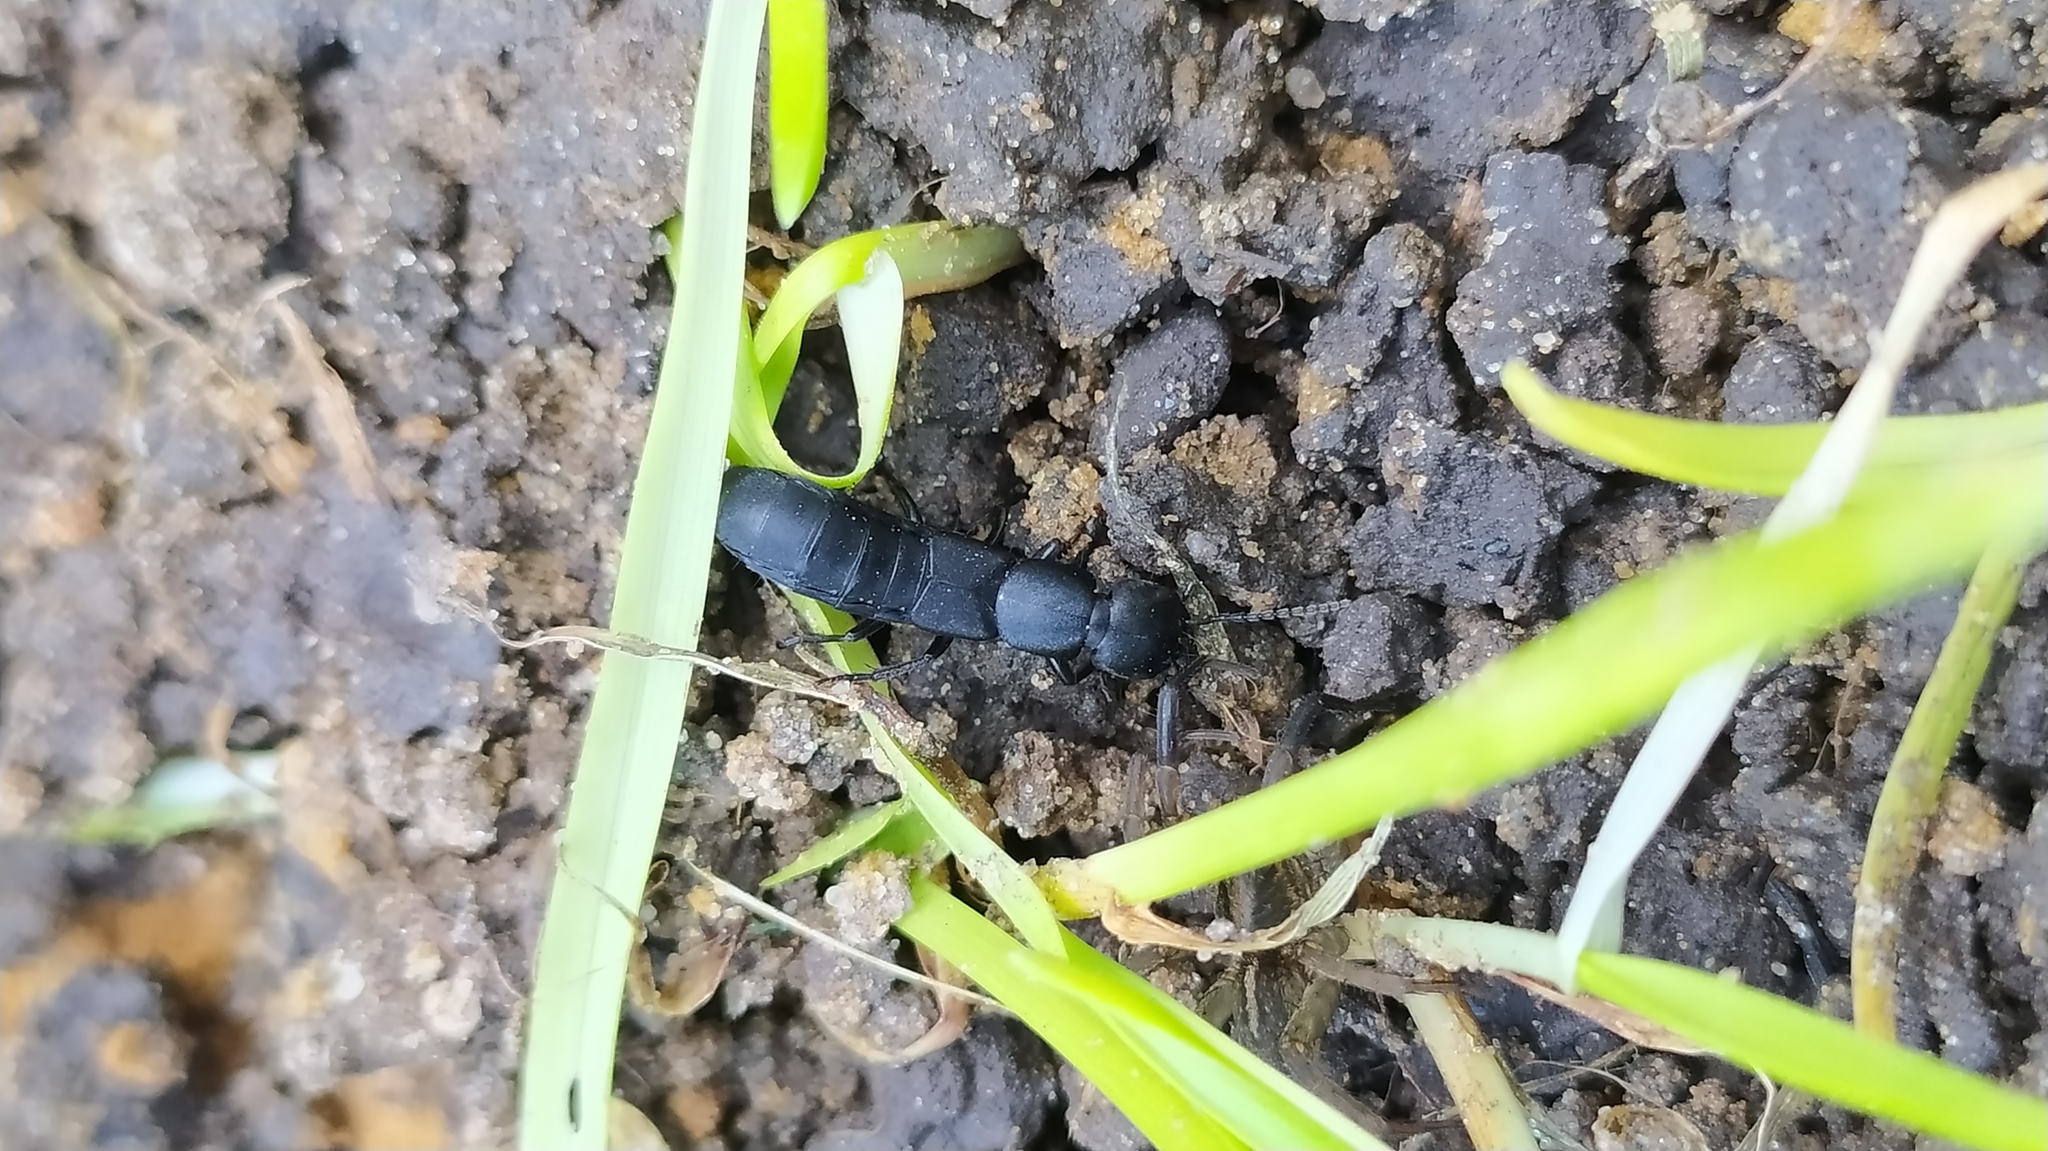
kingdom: Animalia
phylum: Arthropoda
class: Insecta
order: Coleoptera
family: Staphylinidae
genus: Ocypus
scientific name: Ocypus nitens
